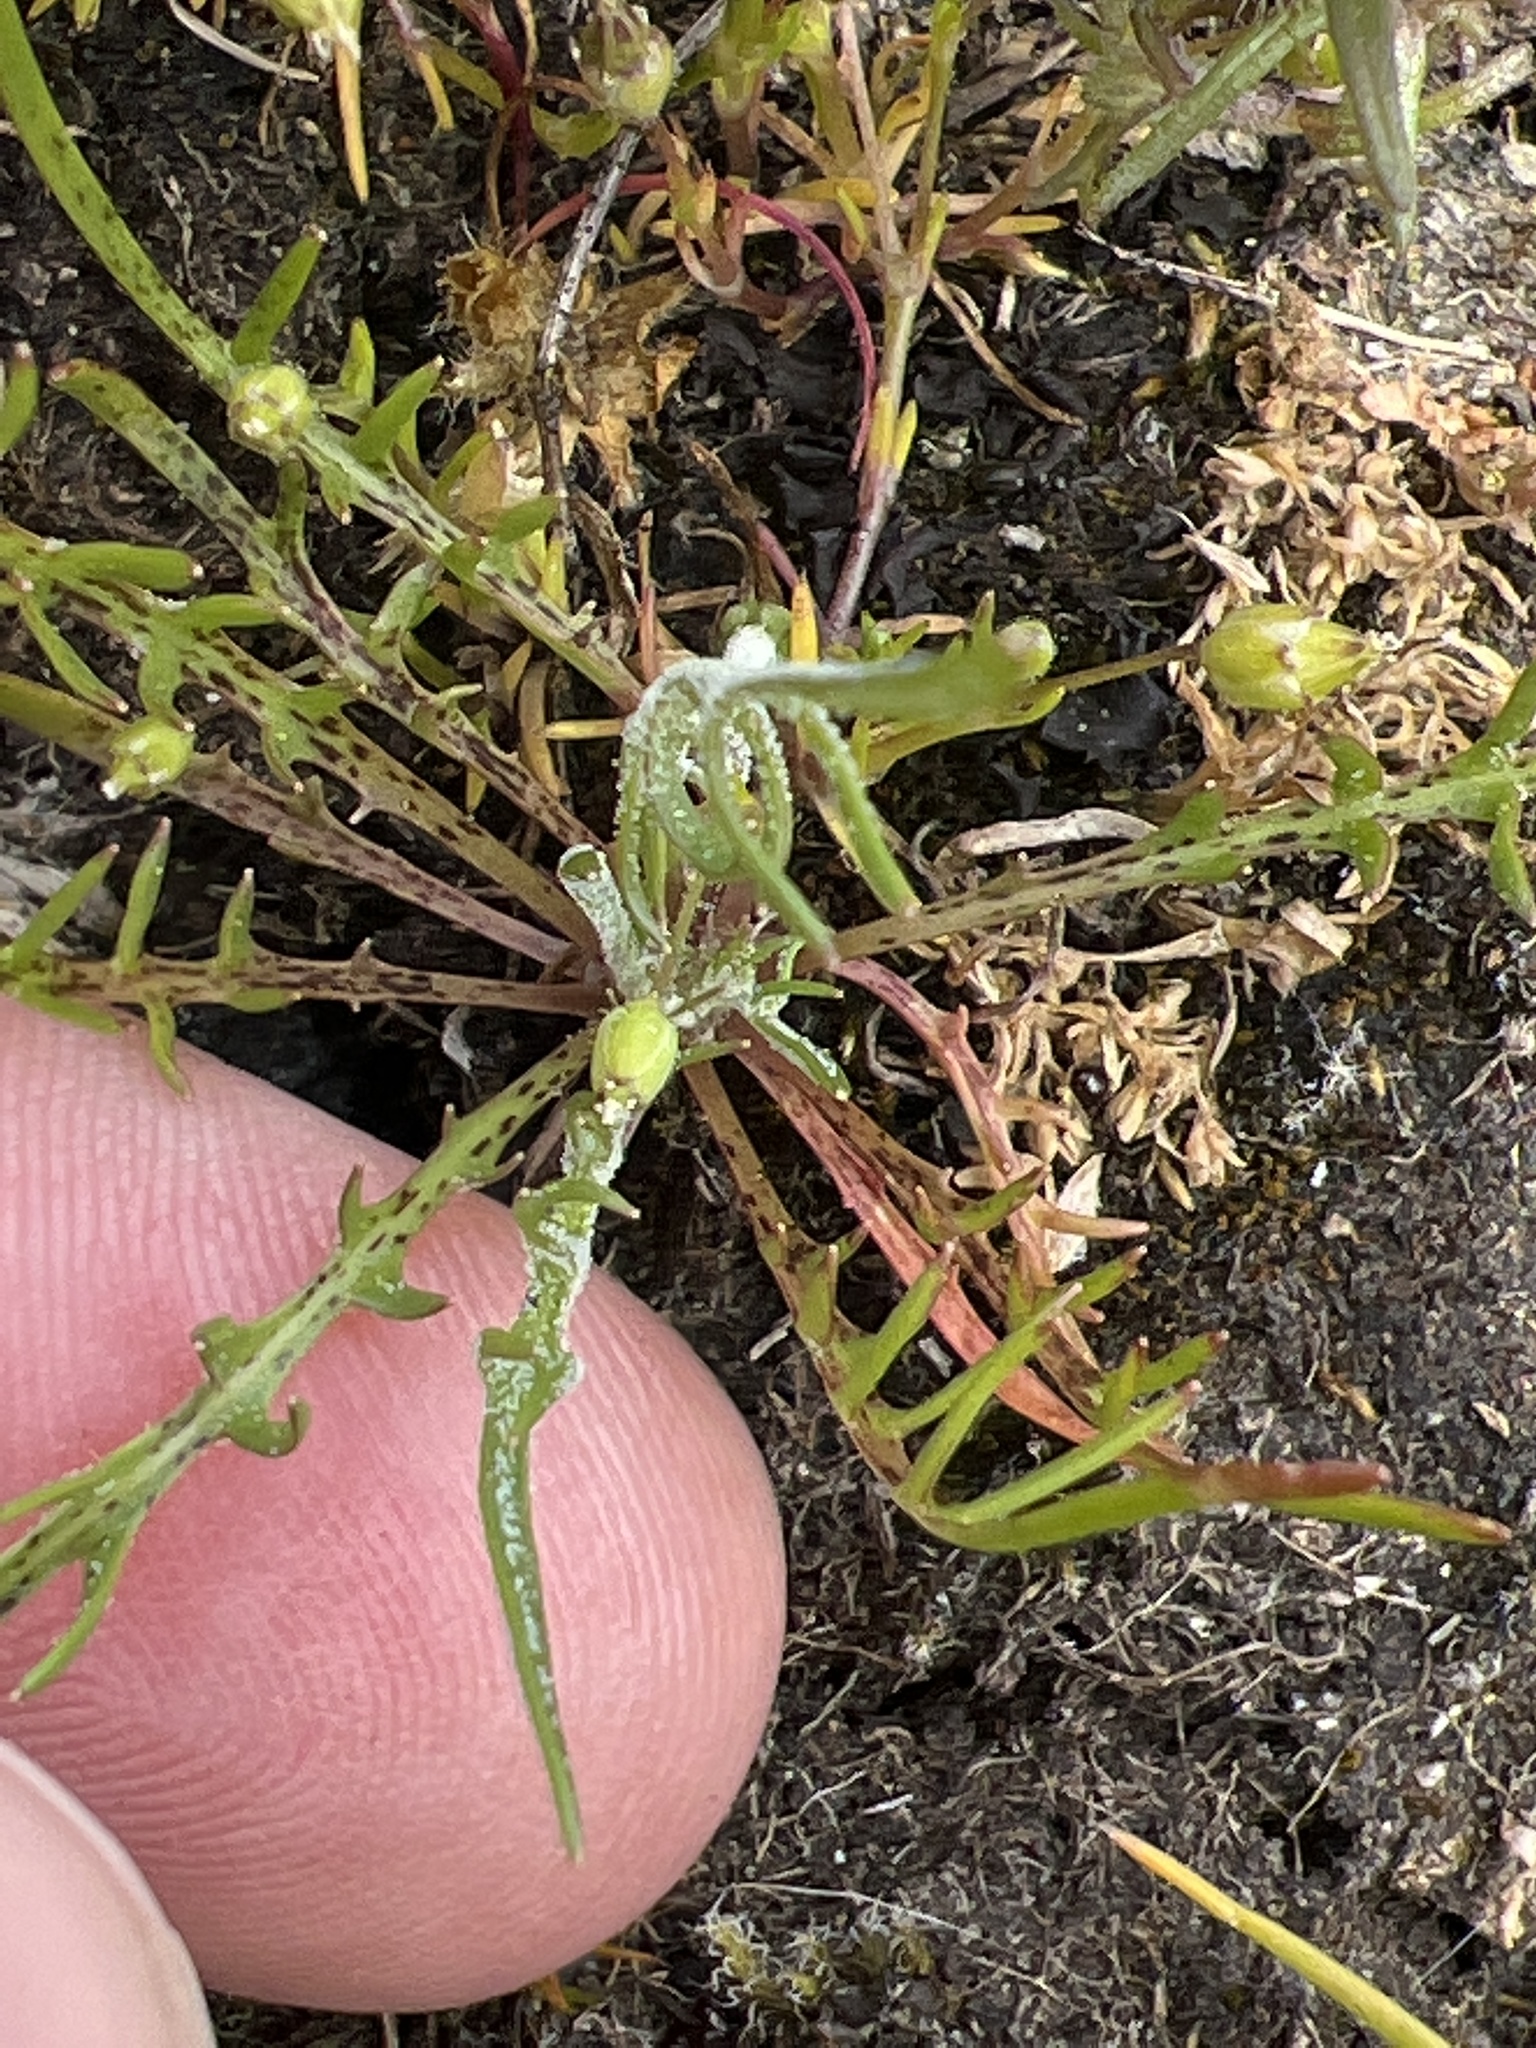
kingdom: Plantae
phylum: Tracheophyta
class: Magnoliopsida
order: Asterales
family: Asteraceae
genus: Microseris
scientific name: Microseris bigelovii
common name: Coast microseris
